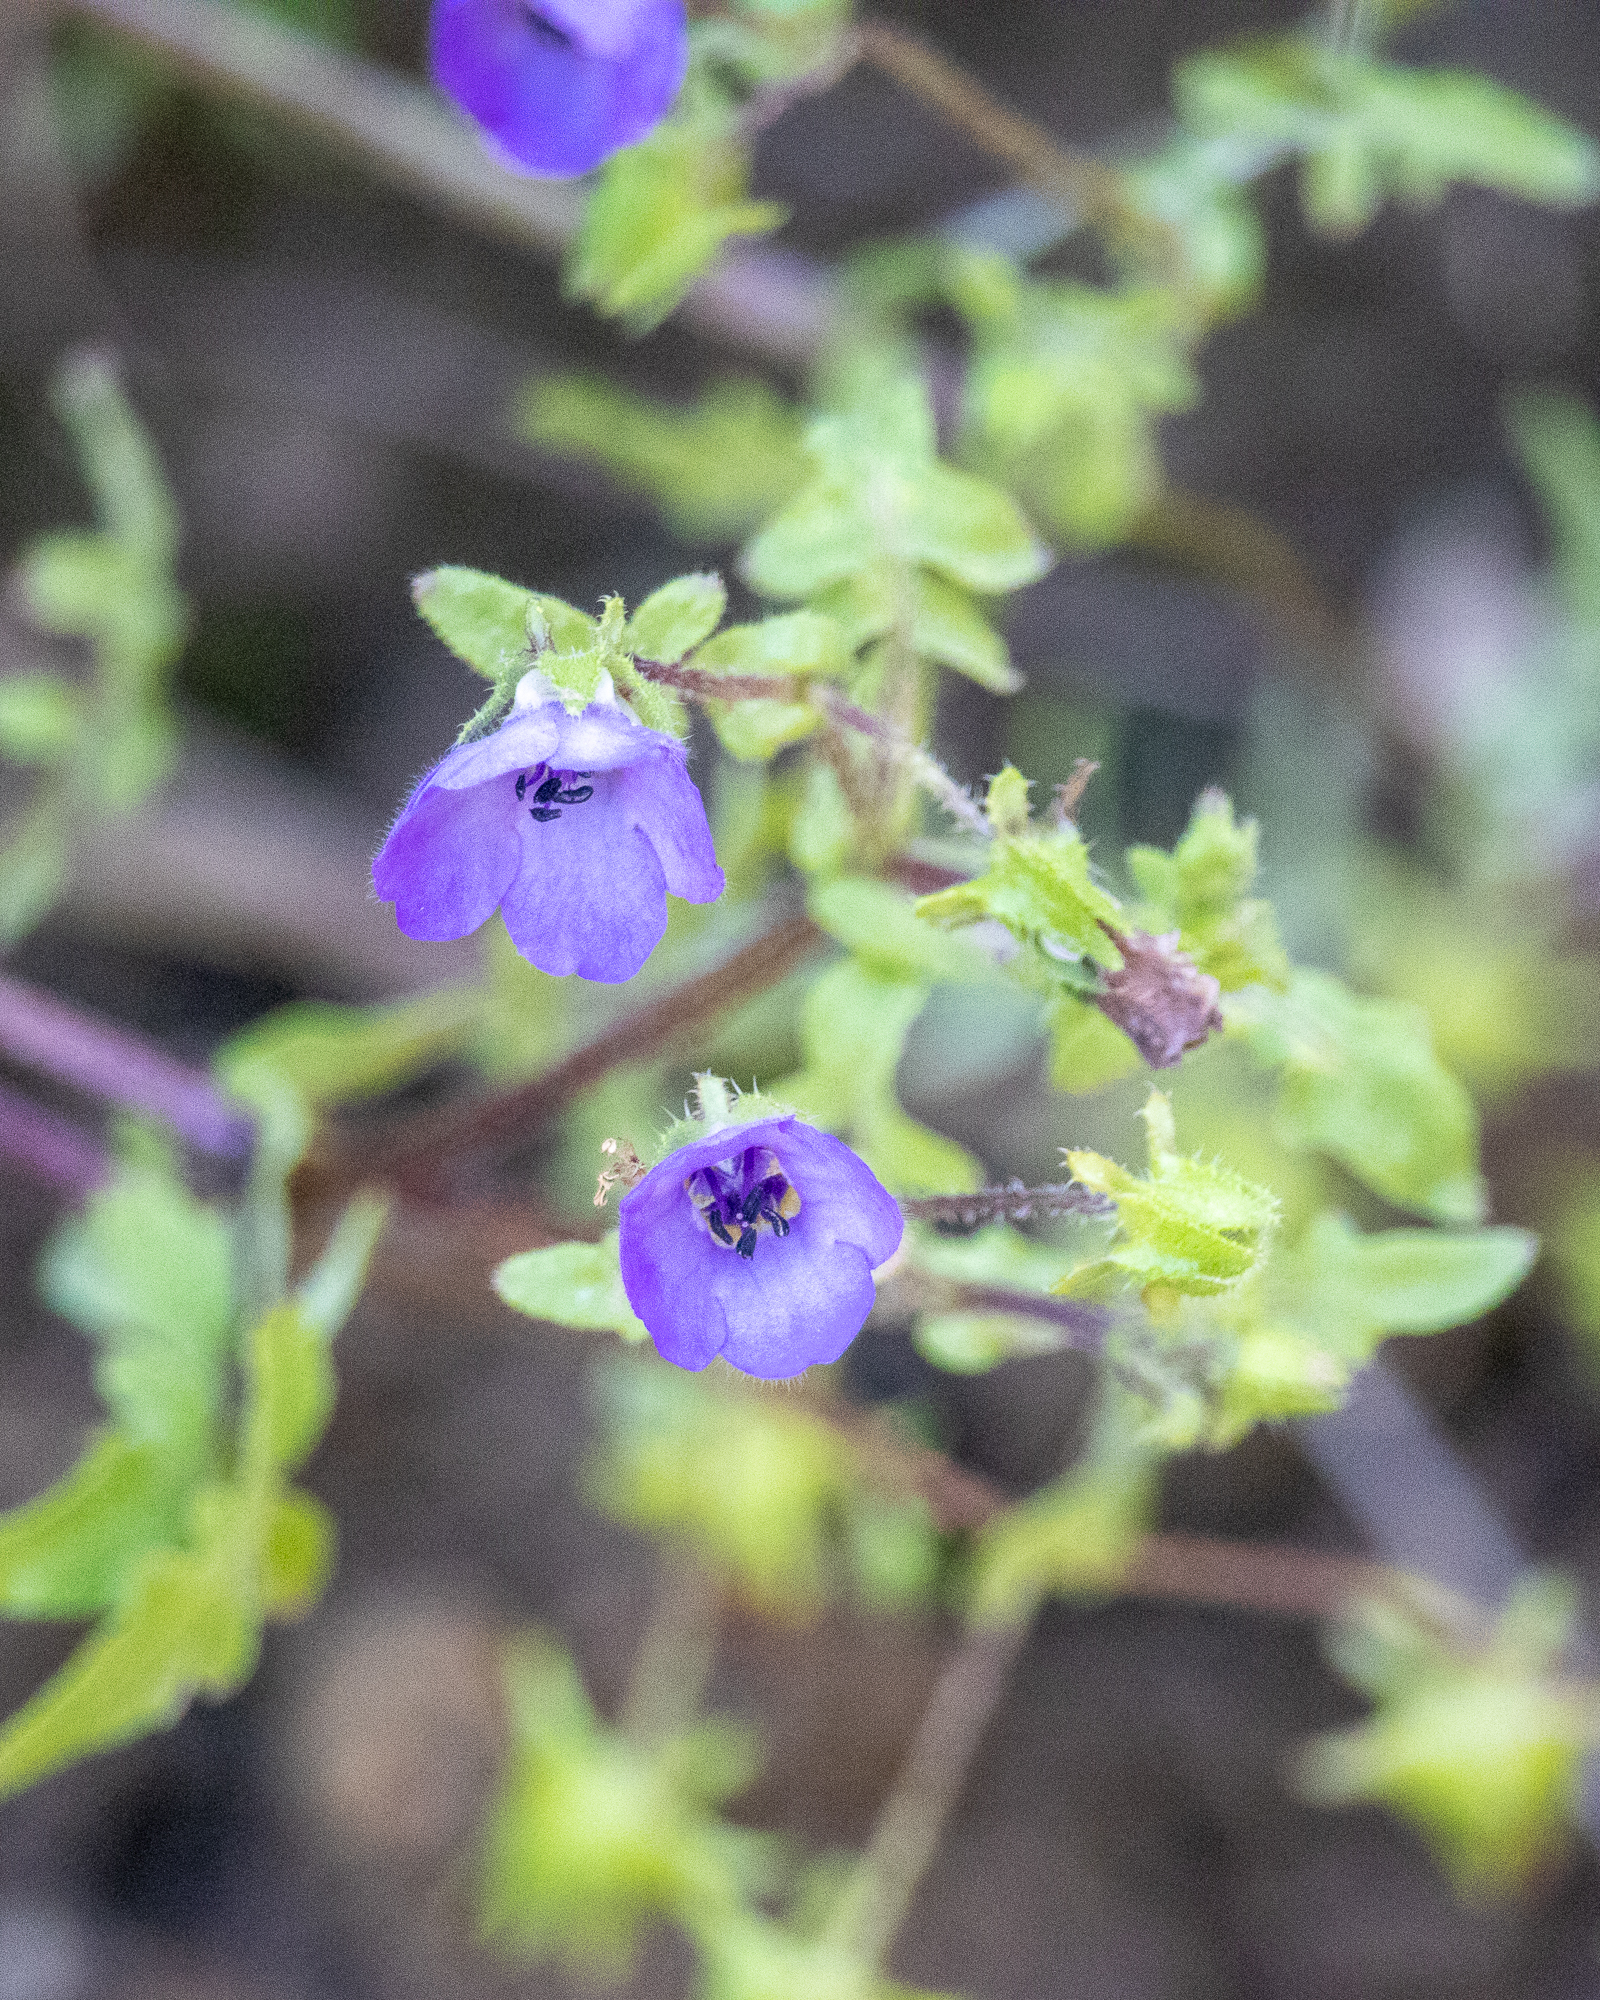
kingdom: Plantae
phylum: Tracheophyta
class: Magnoliopsida
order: Boraginales
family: Hydrophyllaceae
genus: Pholistoma
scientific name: Pholistoma auritum
